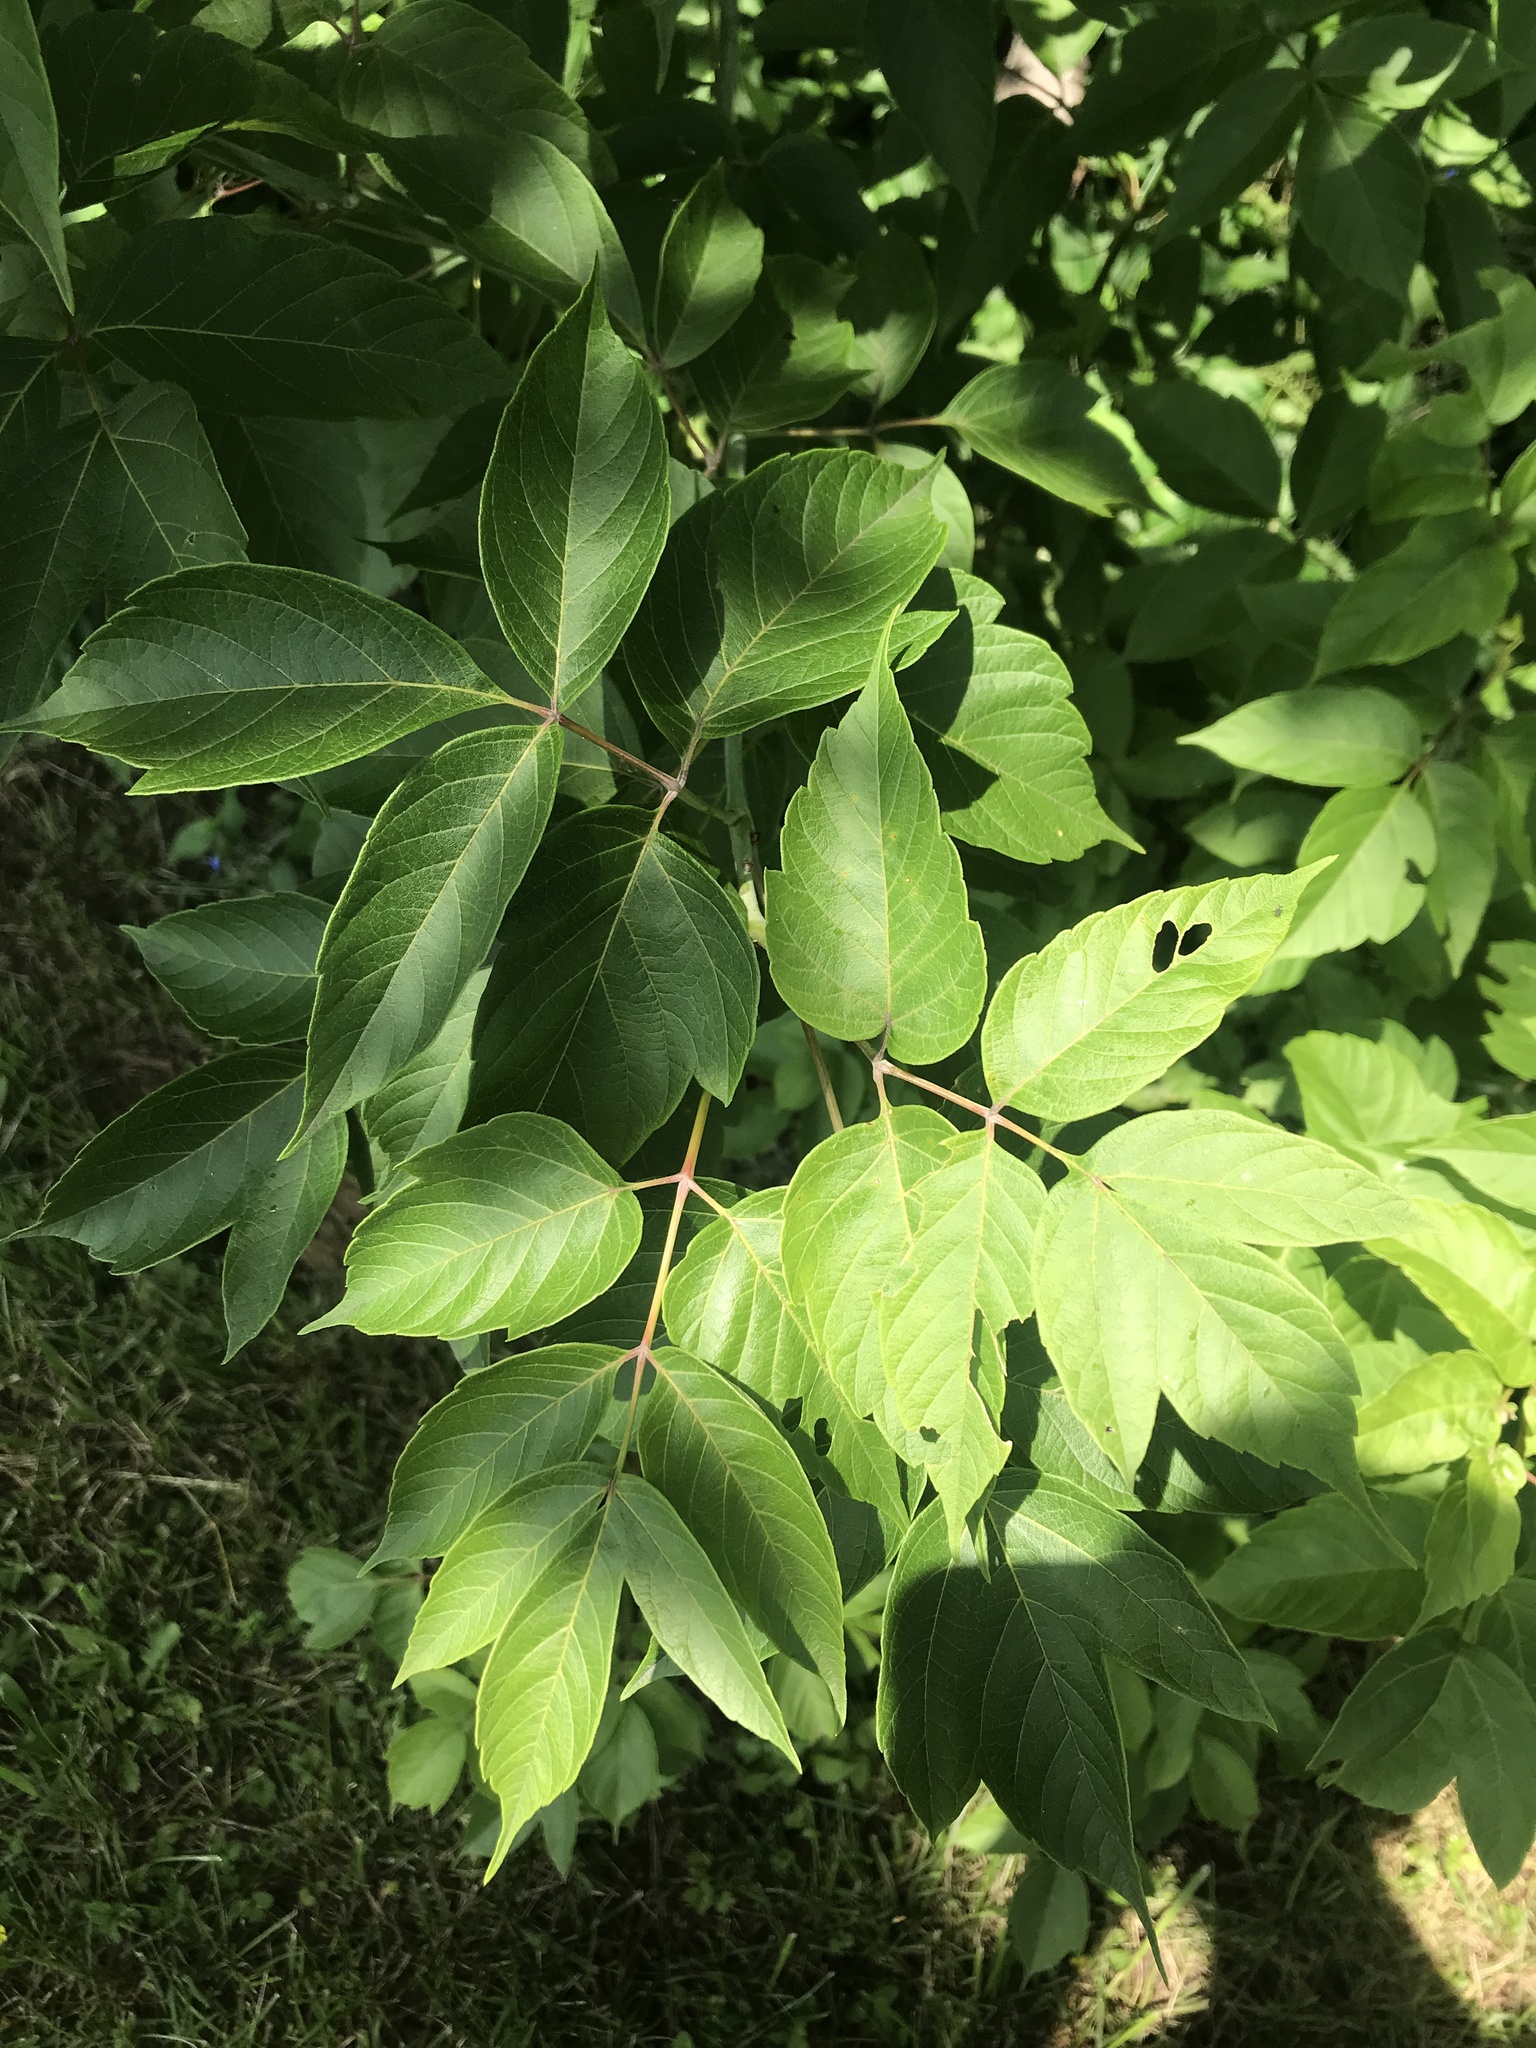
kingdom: Plantae
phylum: Tracheophyta
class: Magnoliopsida
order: Sapindales
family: Sapindaceae
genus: Acer
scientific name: Acer negundo
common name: Ashleaf maple
